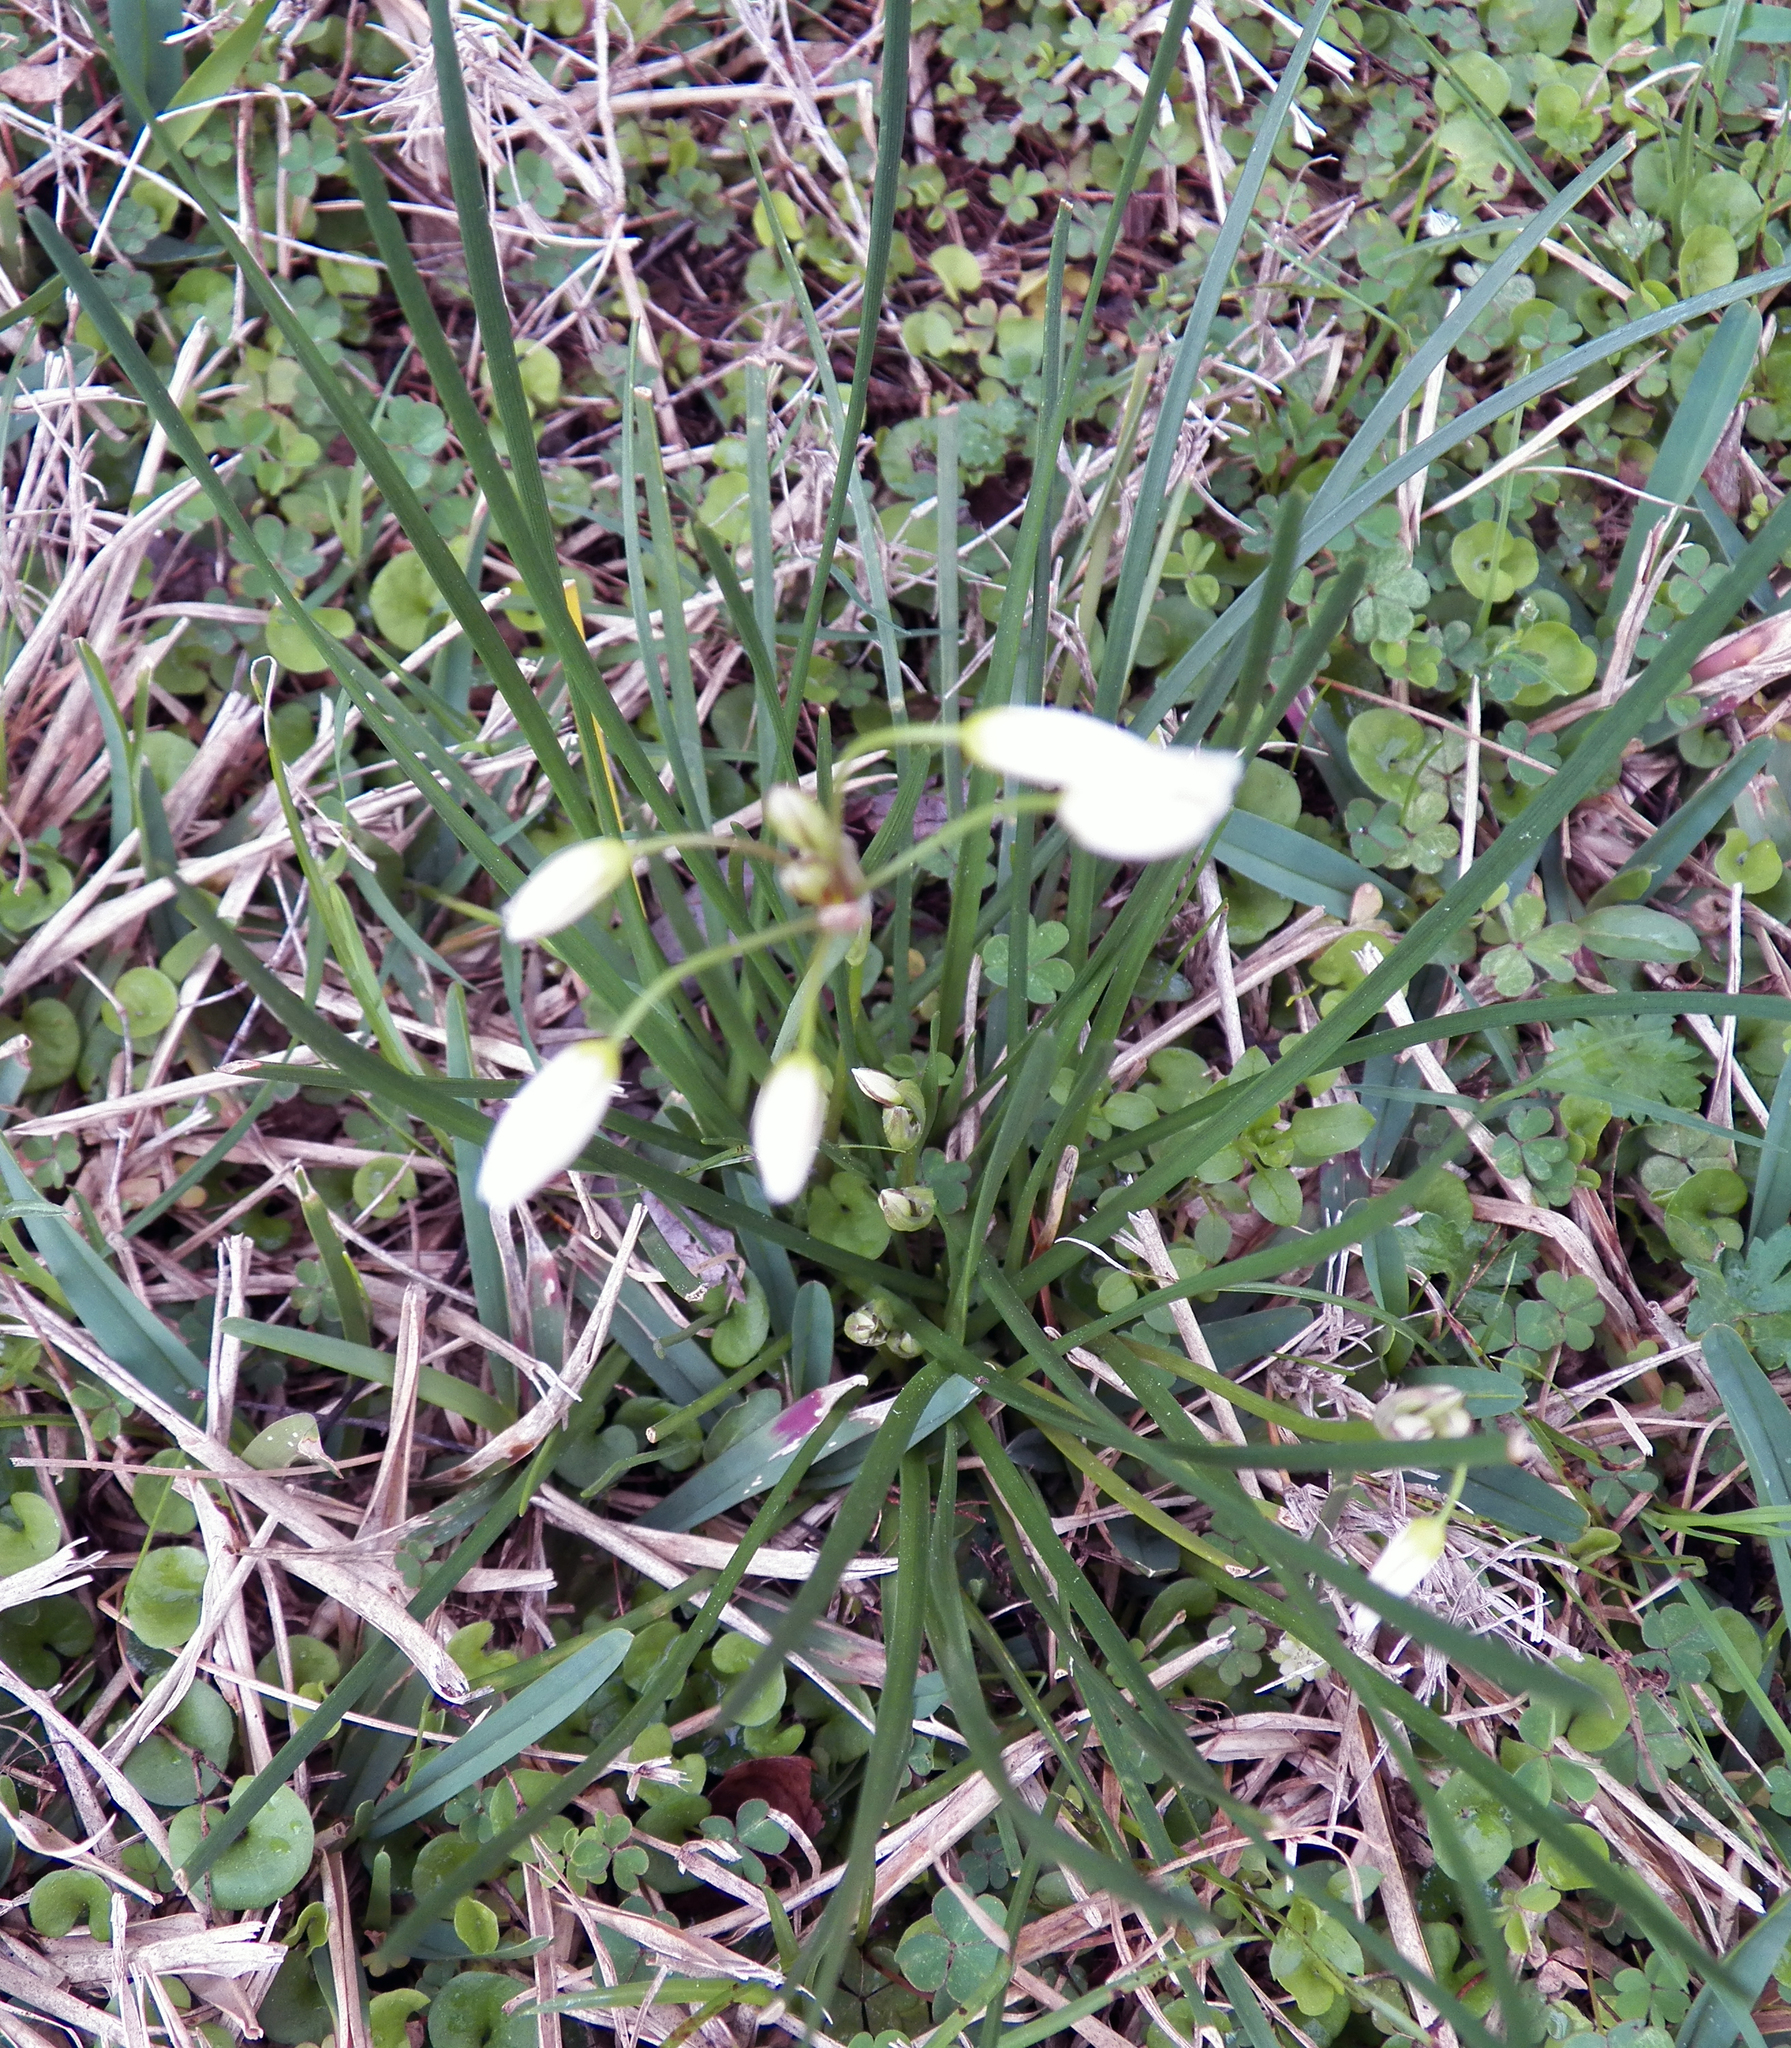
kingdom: Plantae
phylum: Tracheophyta
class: Liliopsida
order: Asparagales
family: Amaryllidaceae
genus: Nothoscordum
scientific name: Nothoscordum bivalve
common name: Crow-poison
